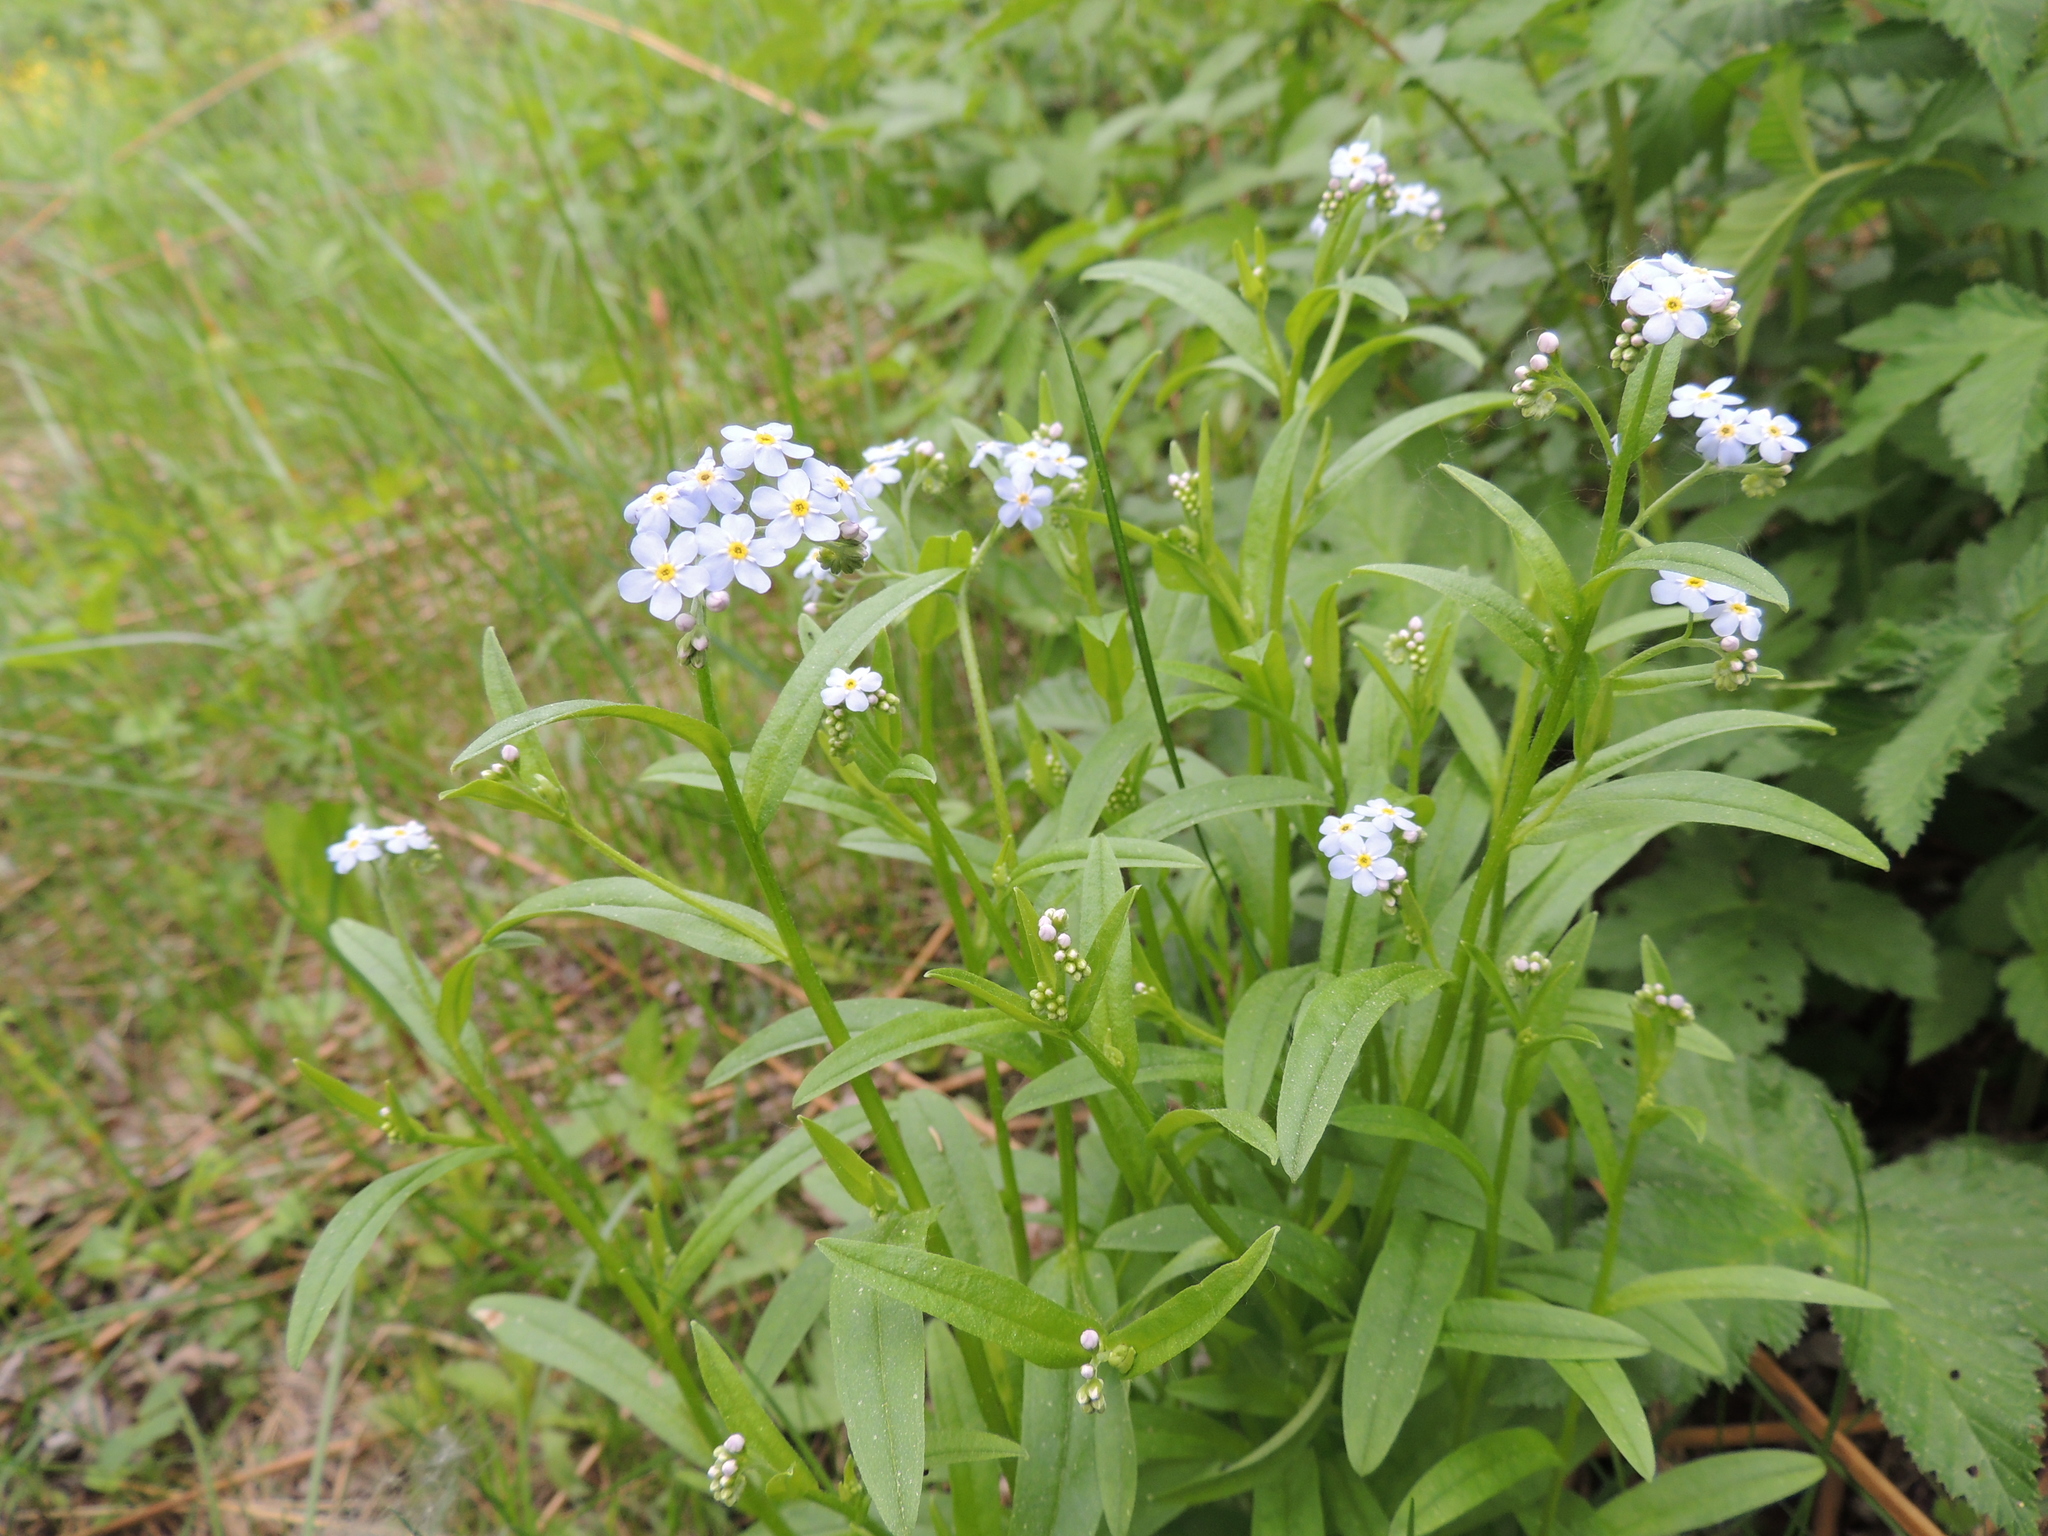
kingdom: Plantae
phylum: Tracheophyta
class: Magnoliopsida
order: Boraginales
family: Boraginaceae
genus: Myosotis
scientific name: Myosotis scorpioides
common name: Water forget-me-not
